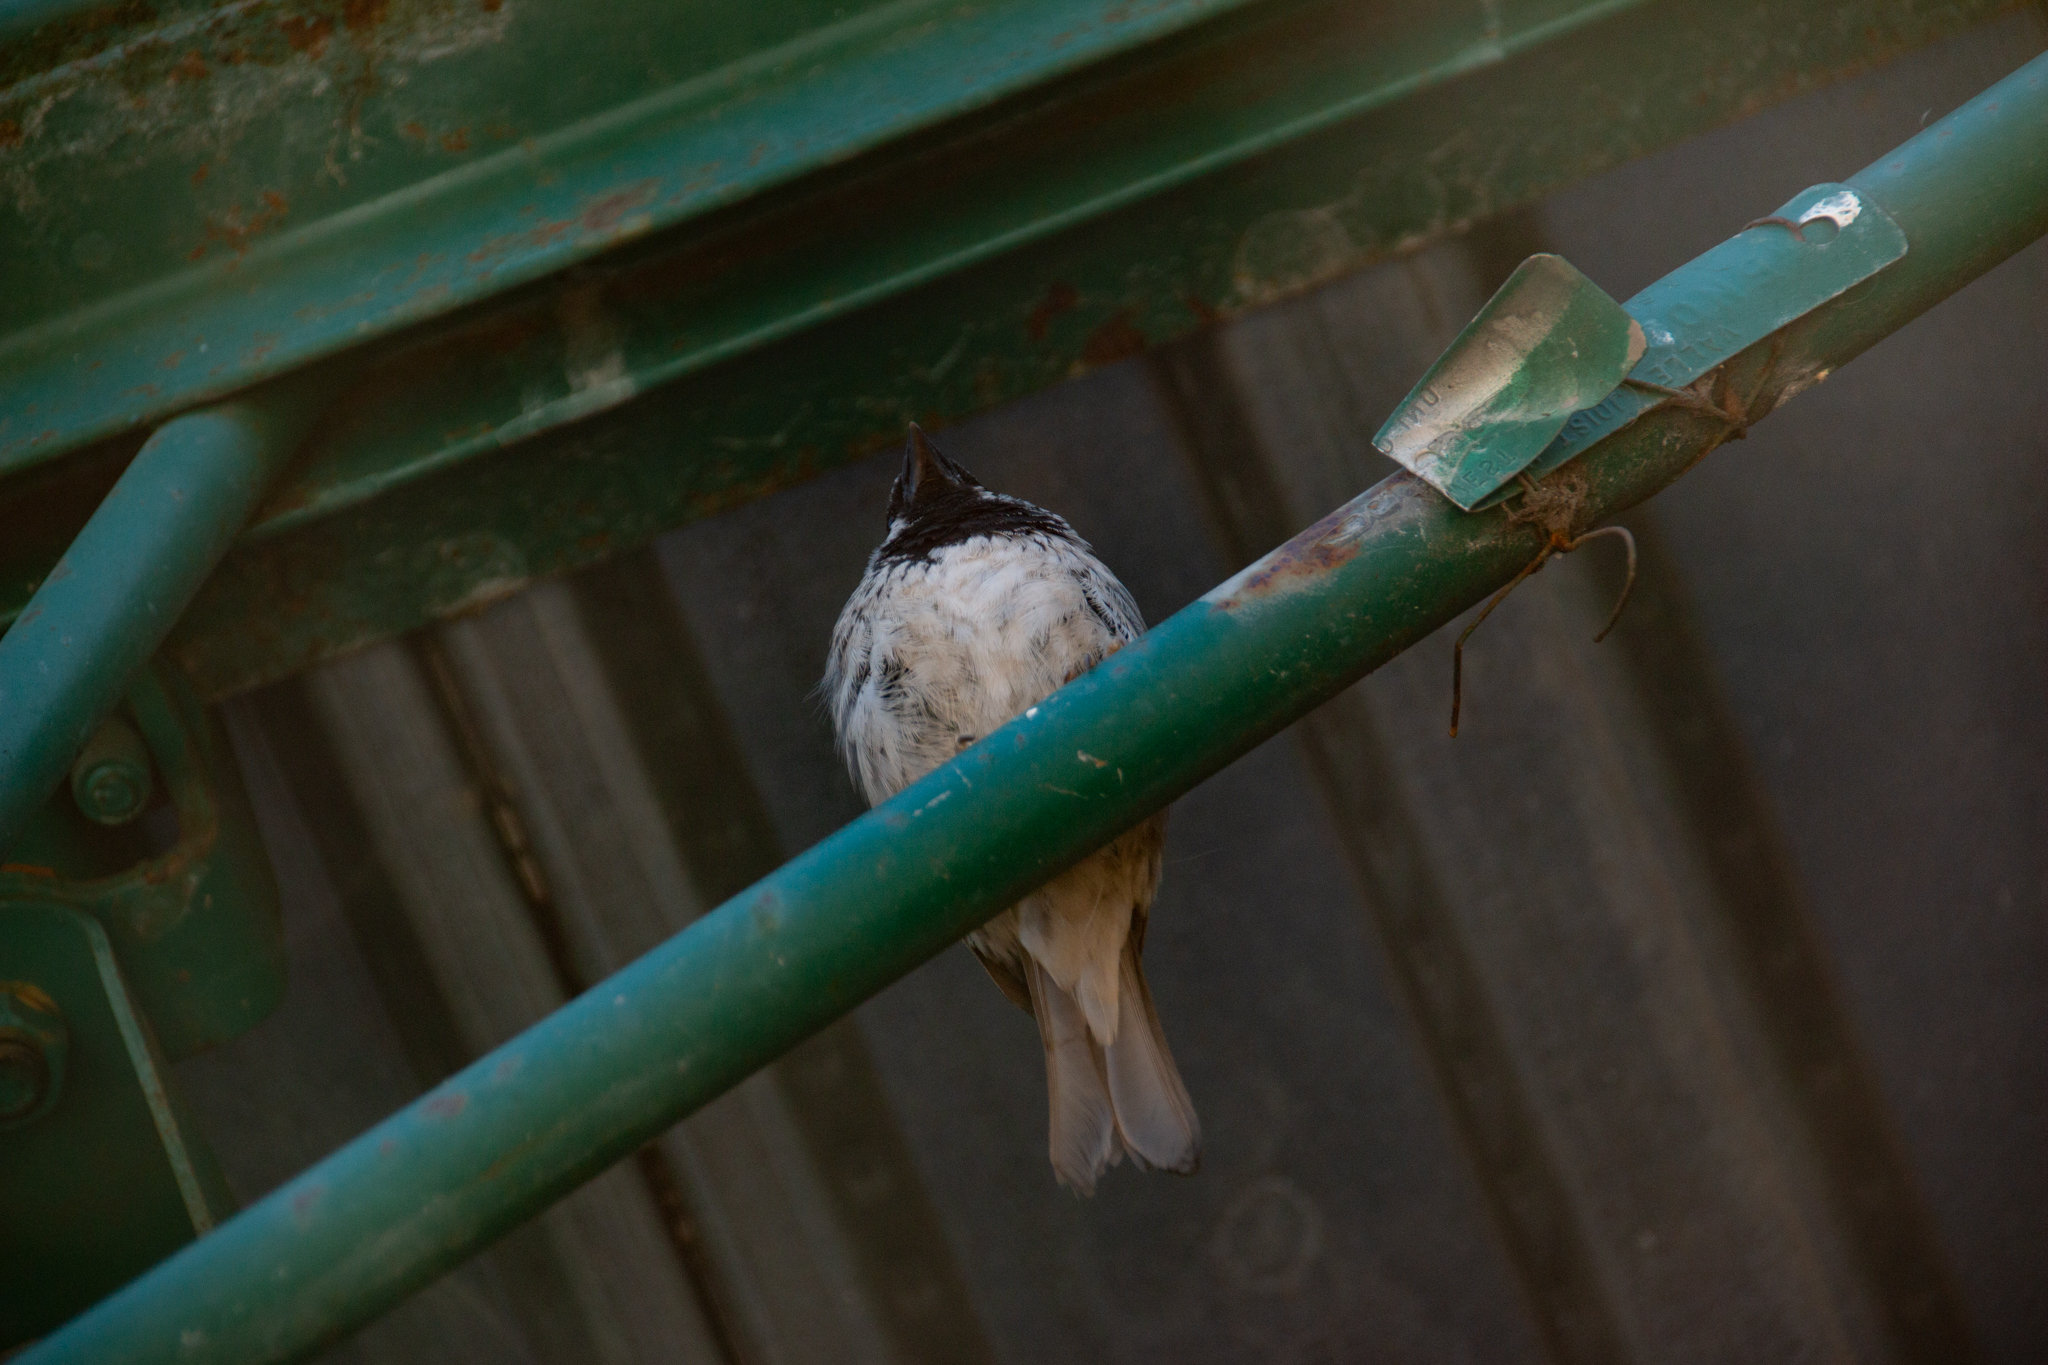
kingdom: Animalia
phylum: Chordata
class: Aves
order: Passeriformes
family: Passeridae
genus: Passer
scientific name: Passer domesticus
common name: House sparrow
